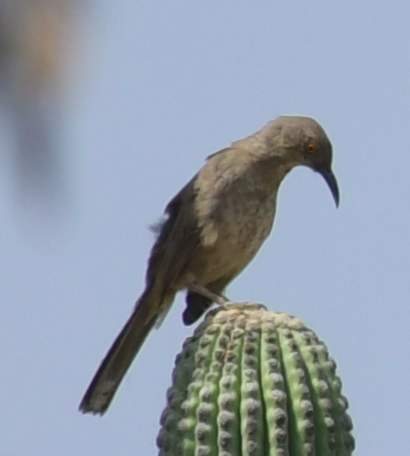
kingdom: Animalia
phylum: Chordata
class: Aves
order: Passeriformes
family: Mimidae
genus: Toxostoma
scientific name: Toxostoma curvirostre
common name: Curve-billed thrasher
